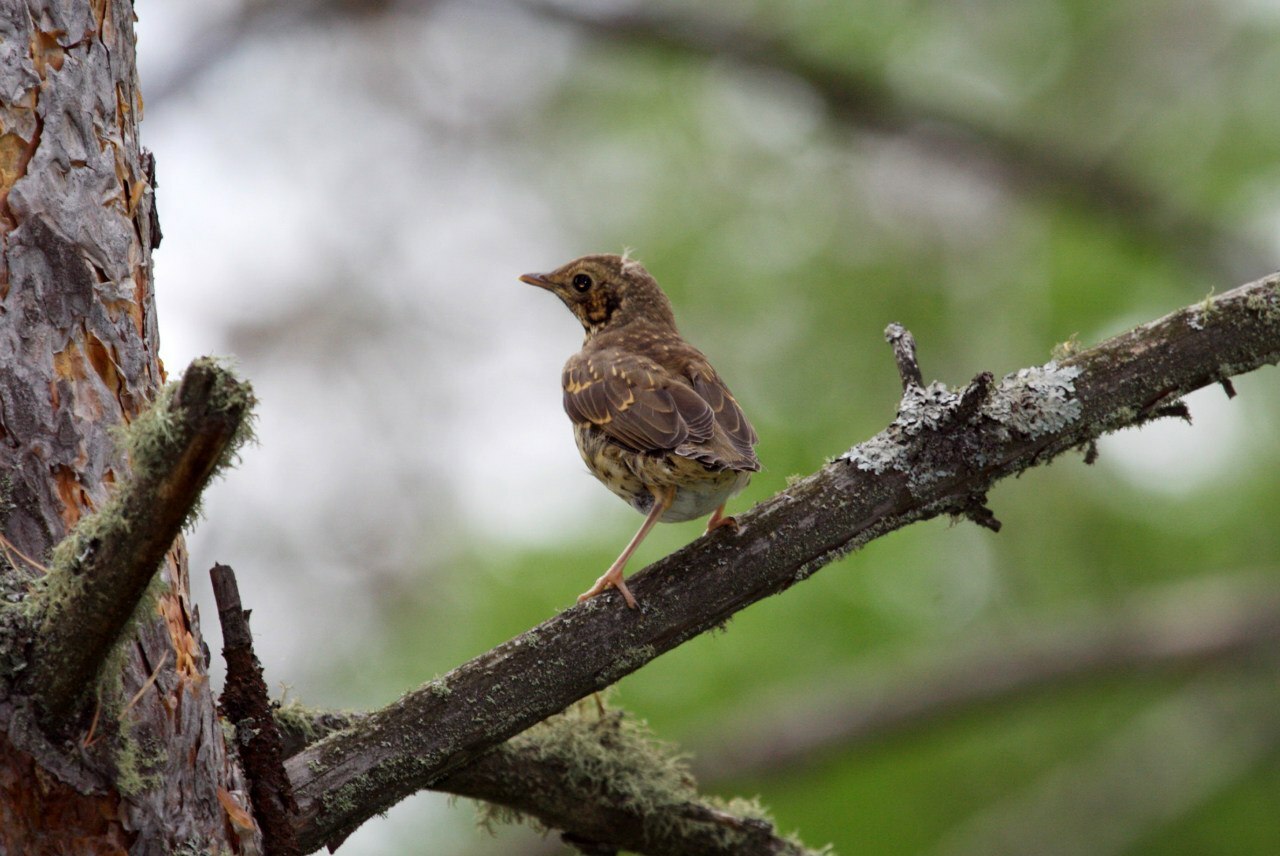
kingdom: Animalia
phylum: Chordata
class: Aves
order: Passeriformes
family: Turdidae
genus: Turdus
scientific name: Turdus viscivorus
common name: Mistle thrush
